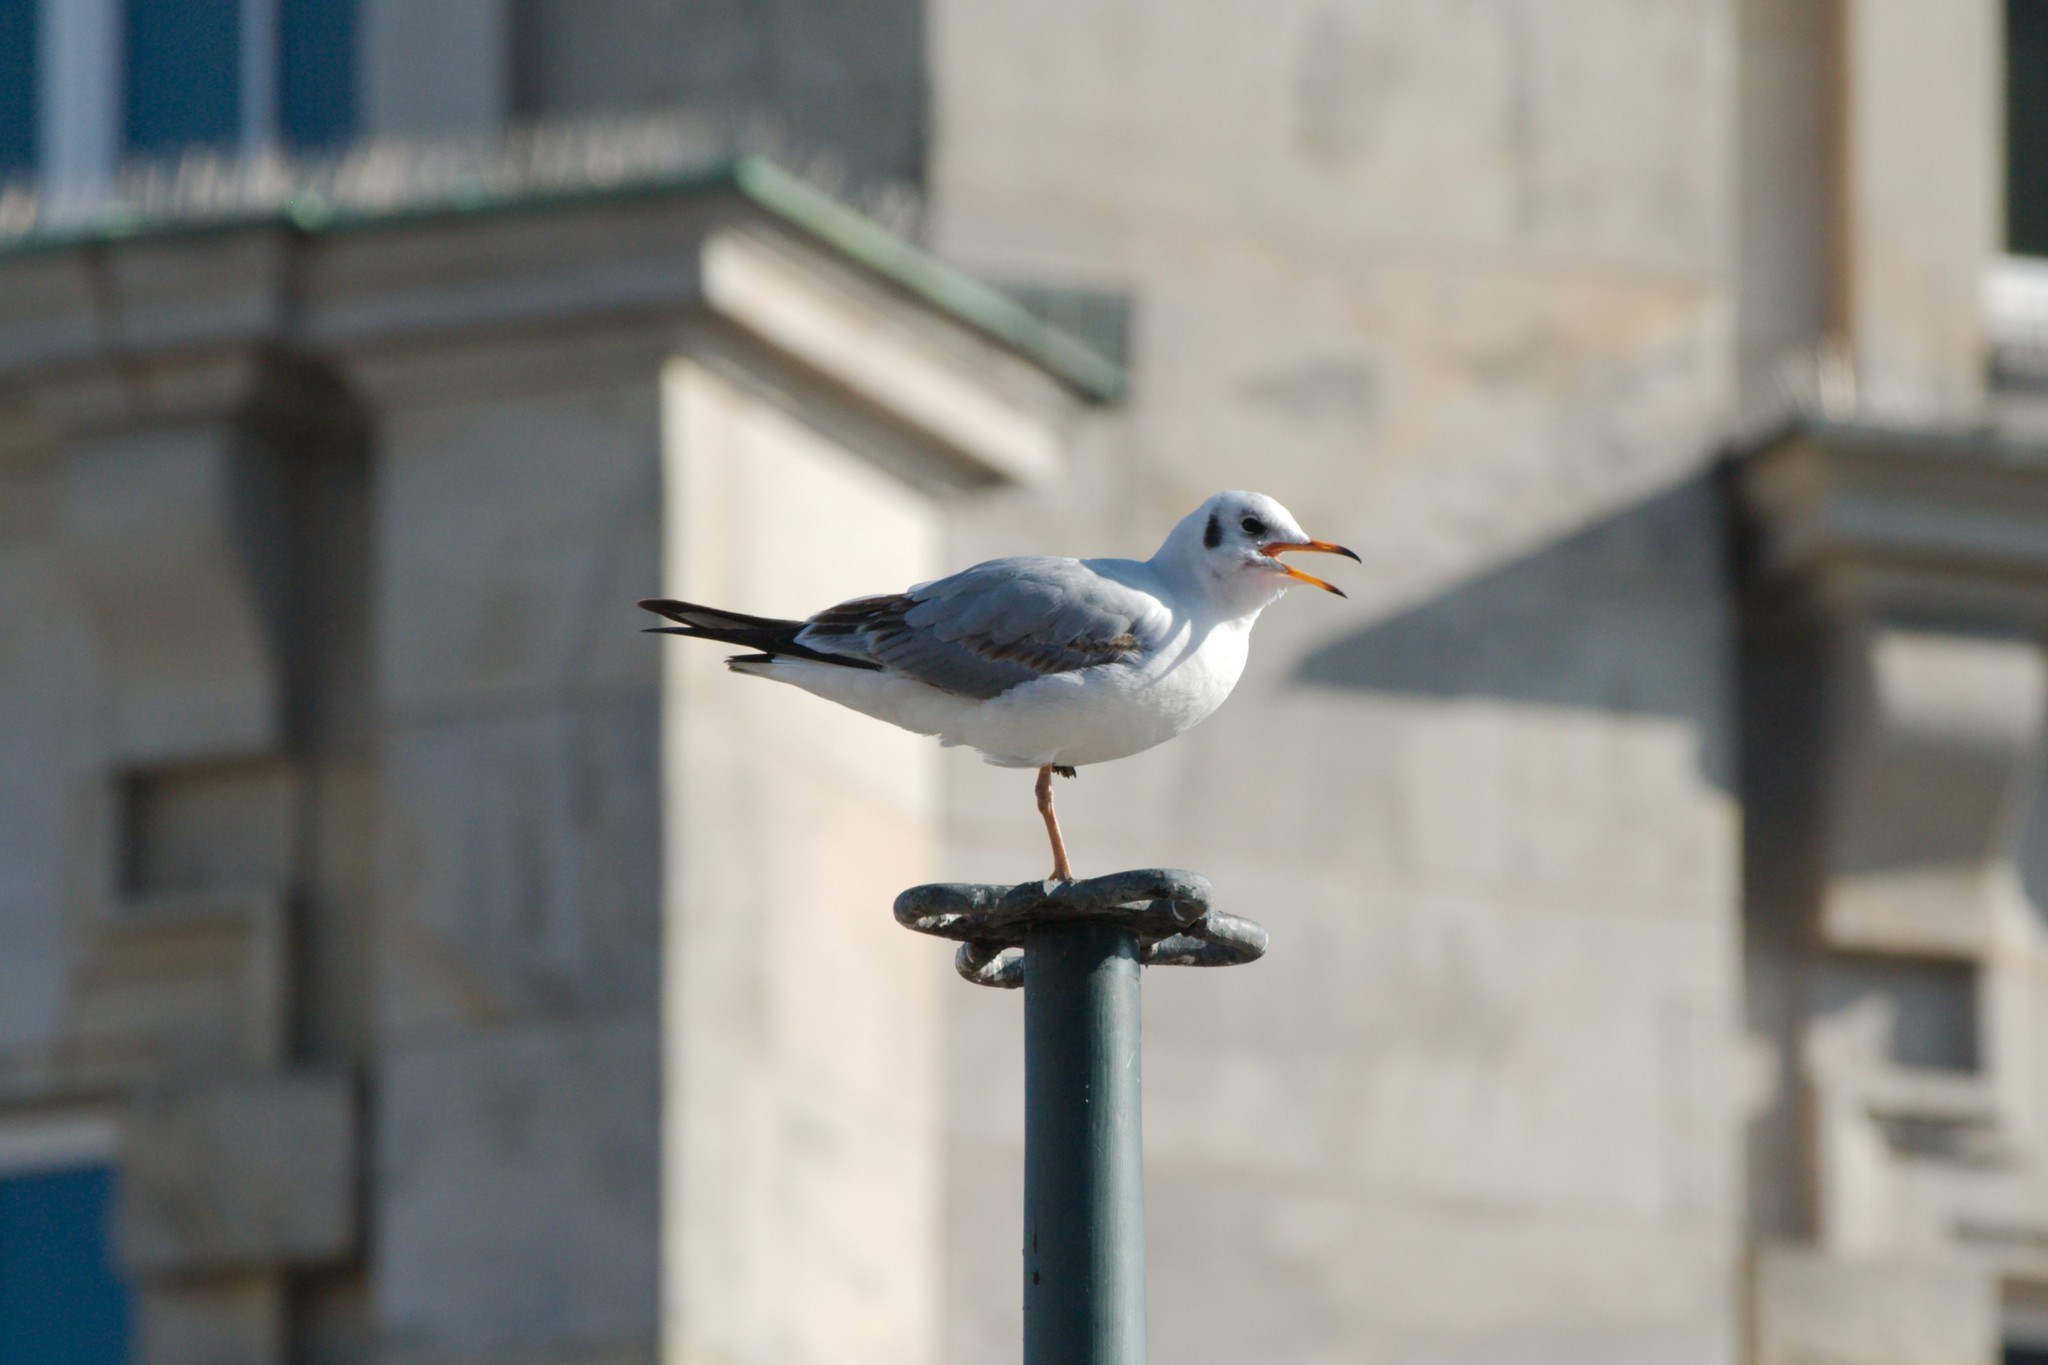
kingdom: Animalia
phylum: Chordata
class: Aves
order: Charadriiformes
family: Laridae
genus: Chroicocephalus
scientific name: Chroicocephalus ridibundus
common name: Black-headed gull
